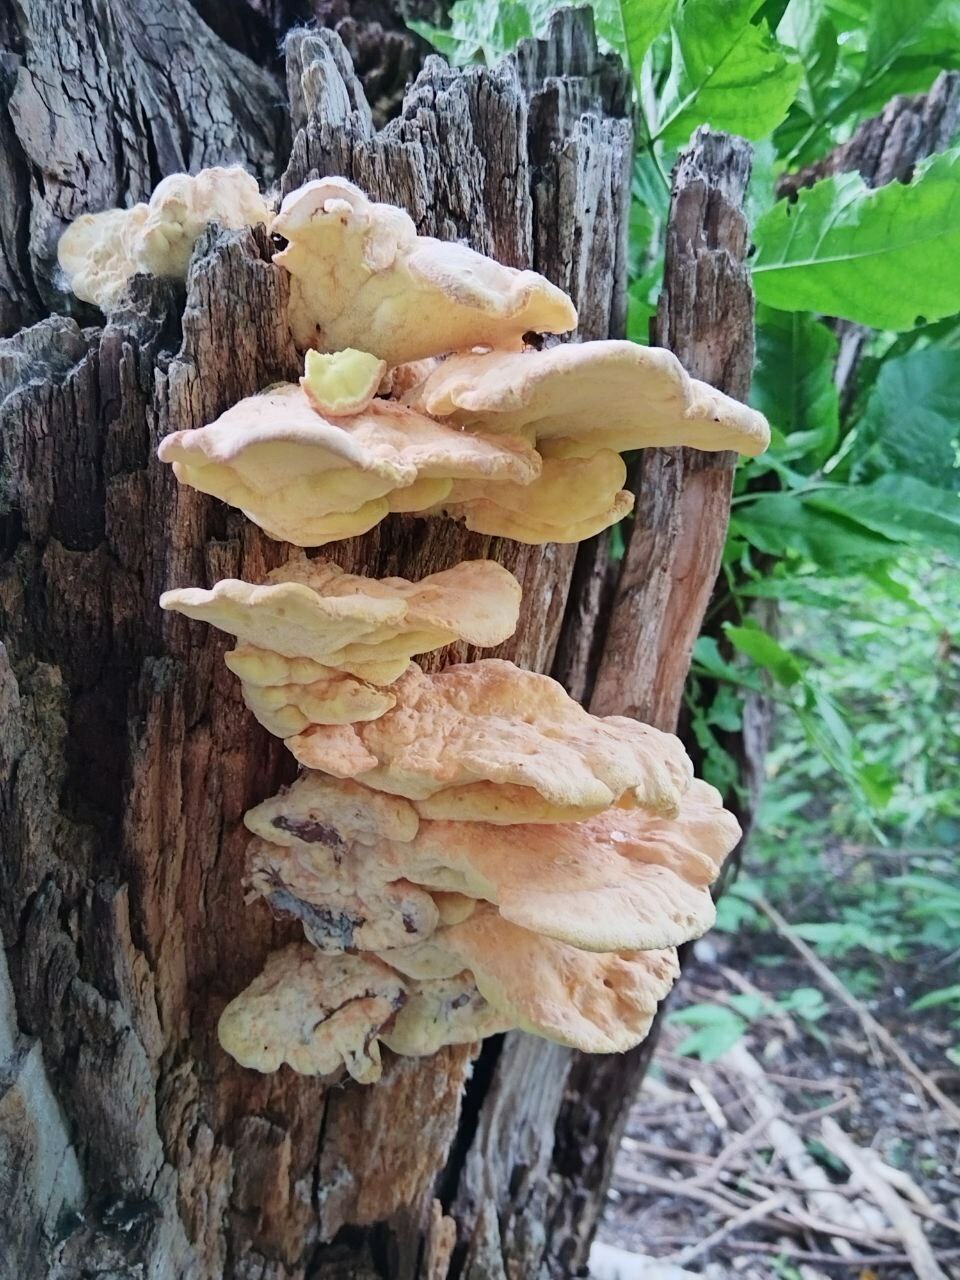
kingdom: Fungi
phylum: Basidiomycota
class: Agaricomycetes
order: Polyporales
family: Laetiporaceae
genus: Laetiporus
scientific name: Laetiporus sulphureus
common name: Chicken of the woods
